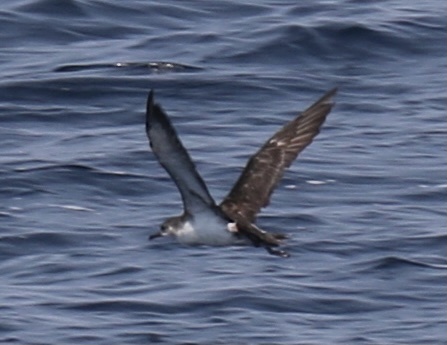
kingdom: Animalia
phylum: Chordata
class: Aves
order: Procellariiformes
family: Procellariidae
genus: Puffinus
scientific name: Puffinus opisthomelas
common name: Black-vented shearwater
